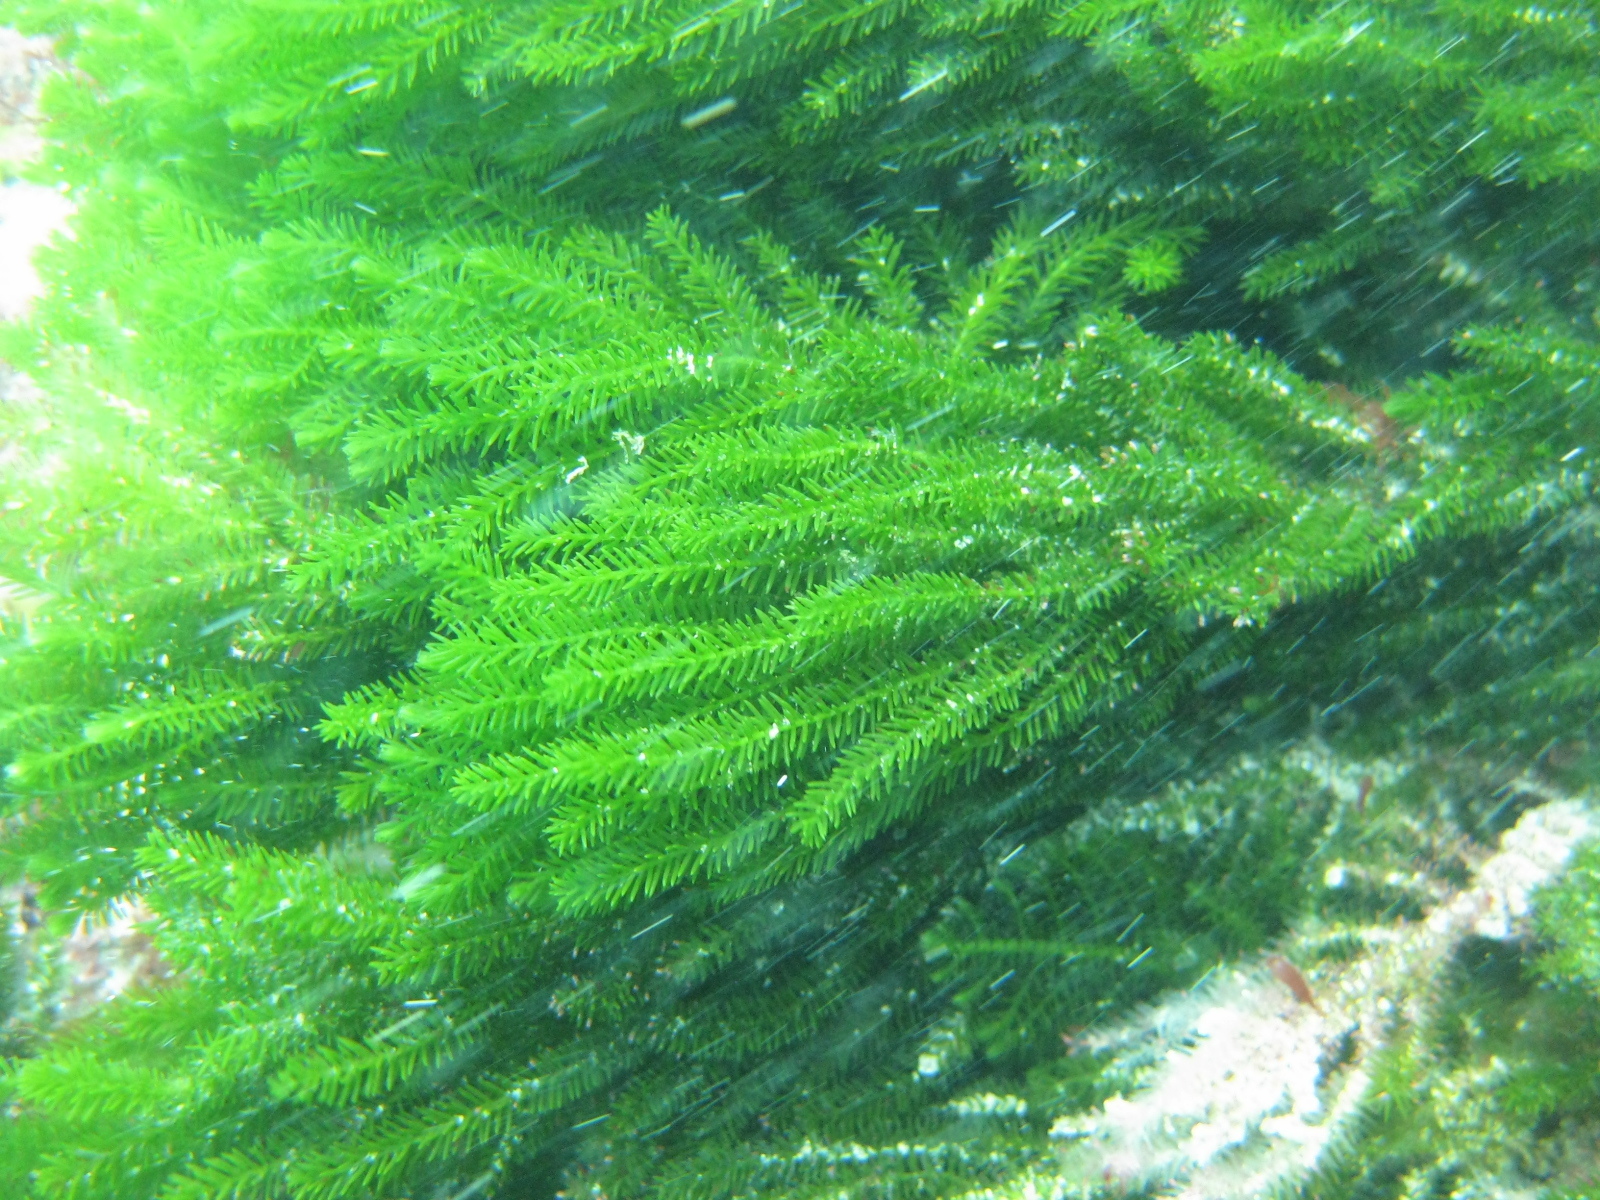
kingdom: Plantae
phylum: Chlorophyta
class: Ulvophyceae
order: Bryopsidales
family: Caulerpaceae
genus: Caulerpa
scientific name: Caulerpa flexilis
